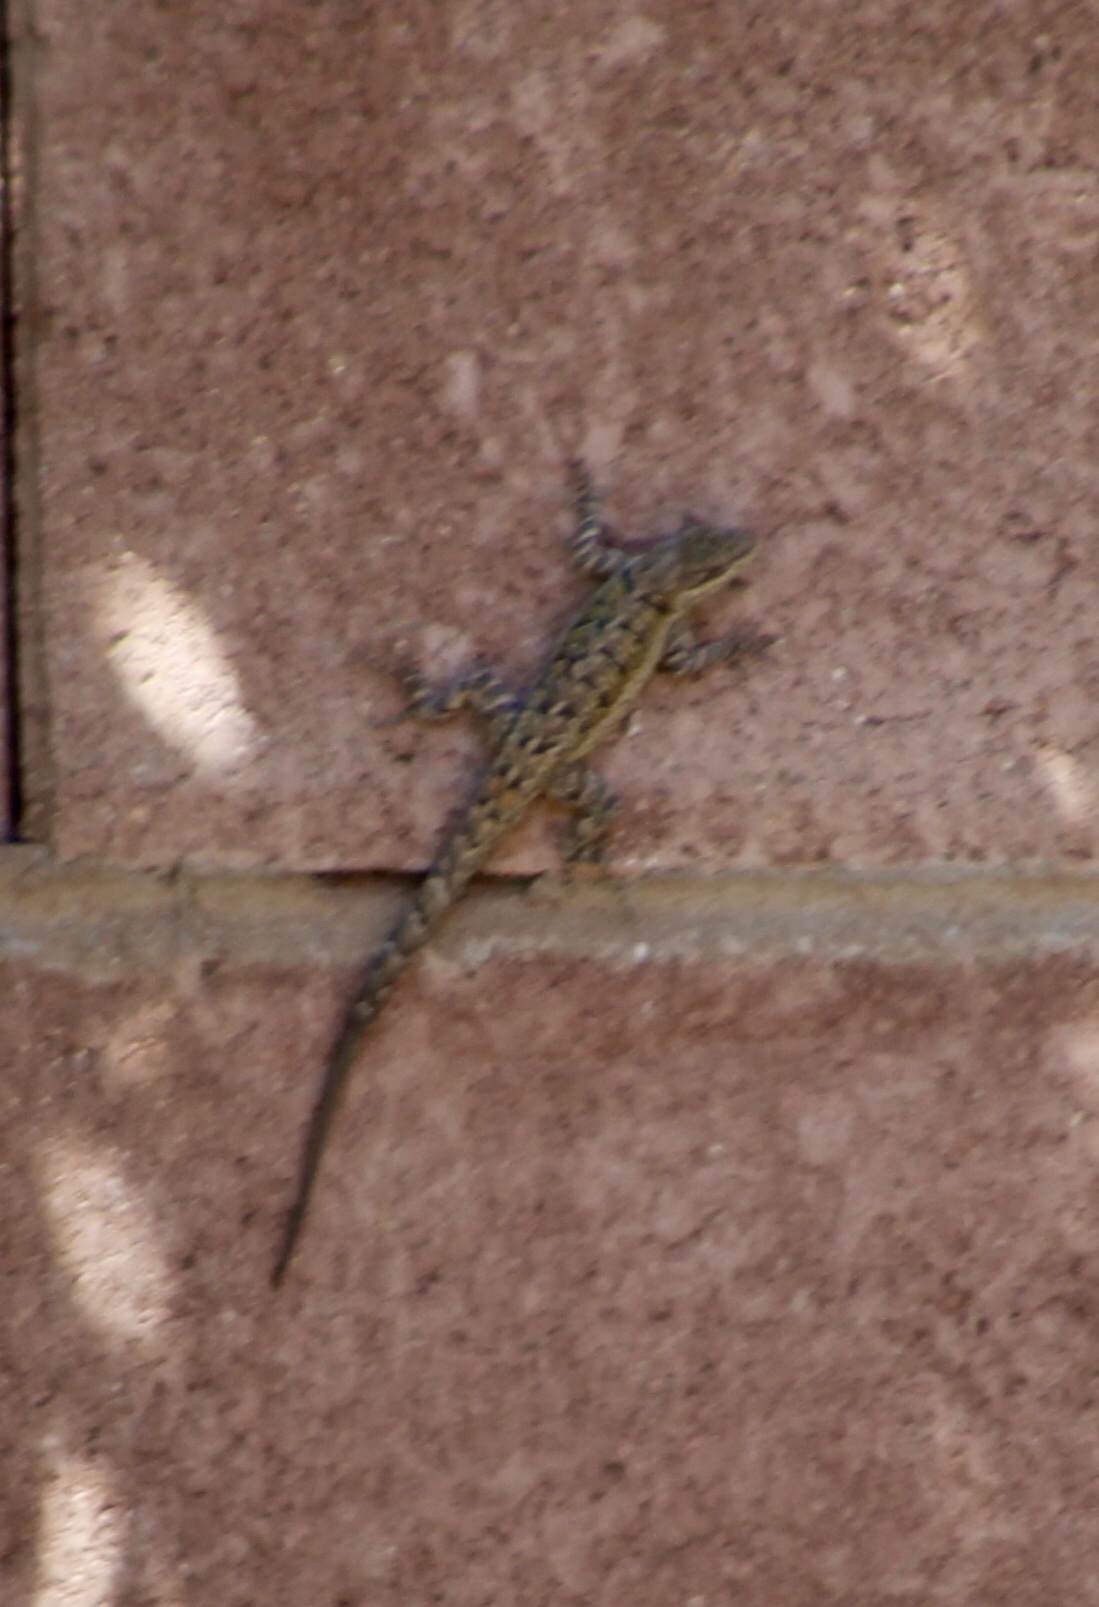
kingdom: Animalia
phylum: Chordata
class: Squamata
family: Phrynosomatidae
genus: Urosaurus
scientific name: Urosaurus ornatus
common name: Ornate tree lizard
